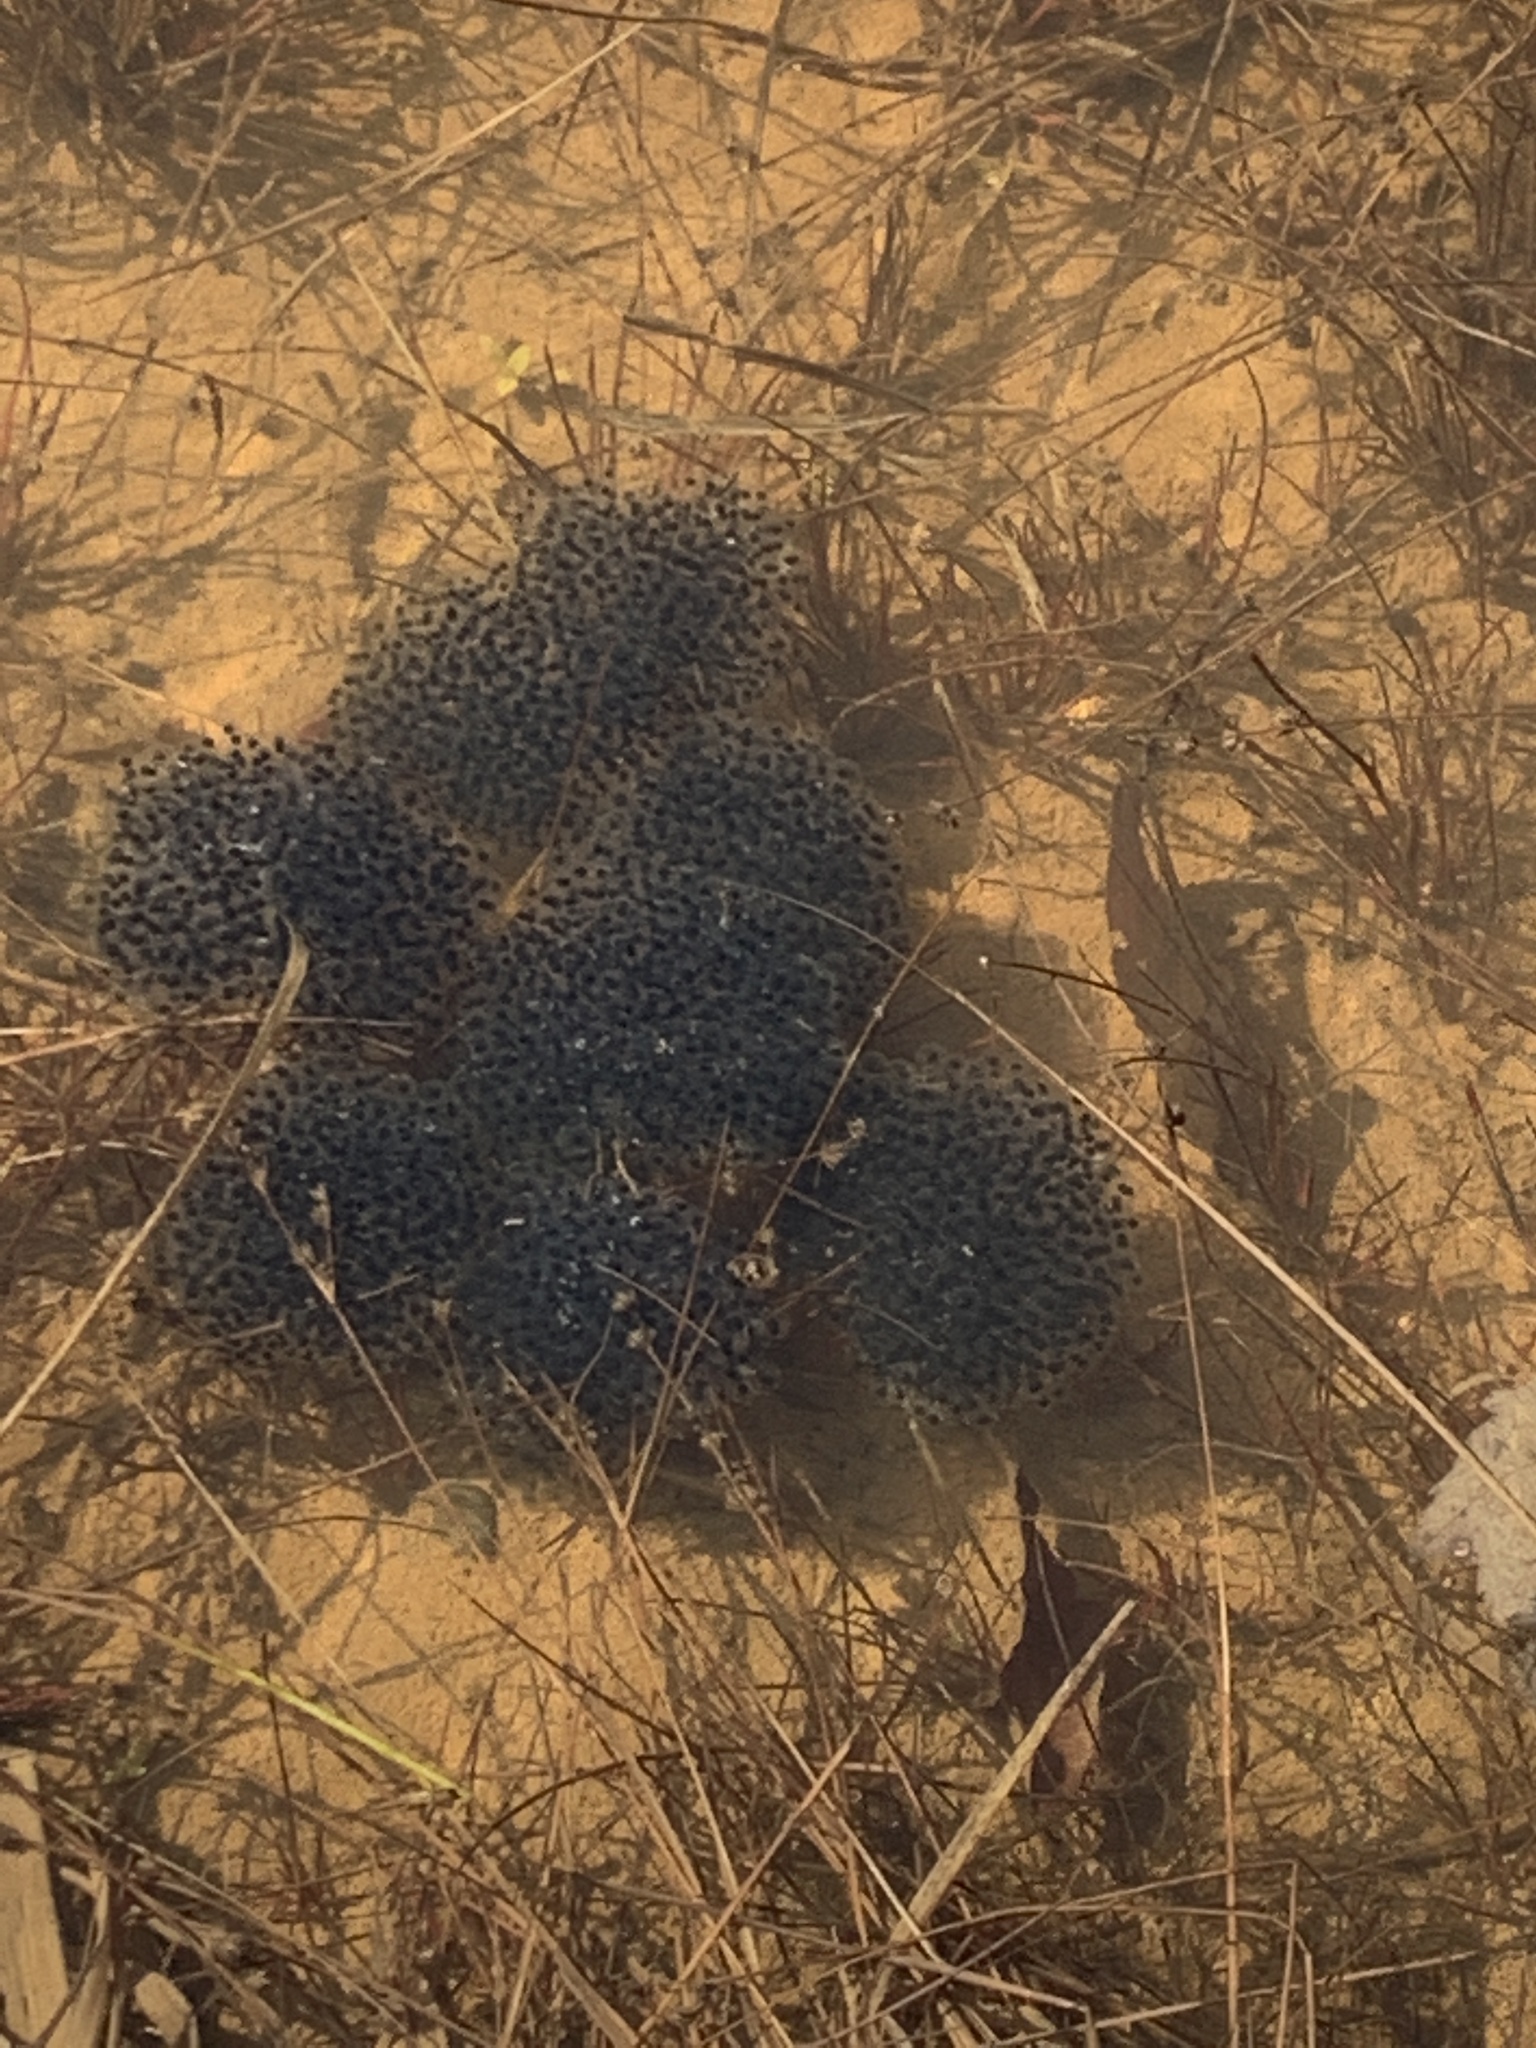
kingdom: Animalia
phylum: Chordata
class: Amphibia
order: Anura
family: Ranidae
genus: Lithobates
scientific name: Lithobates sylvaticus
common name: Wood frog
